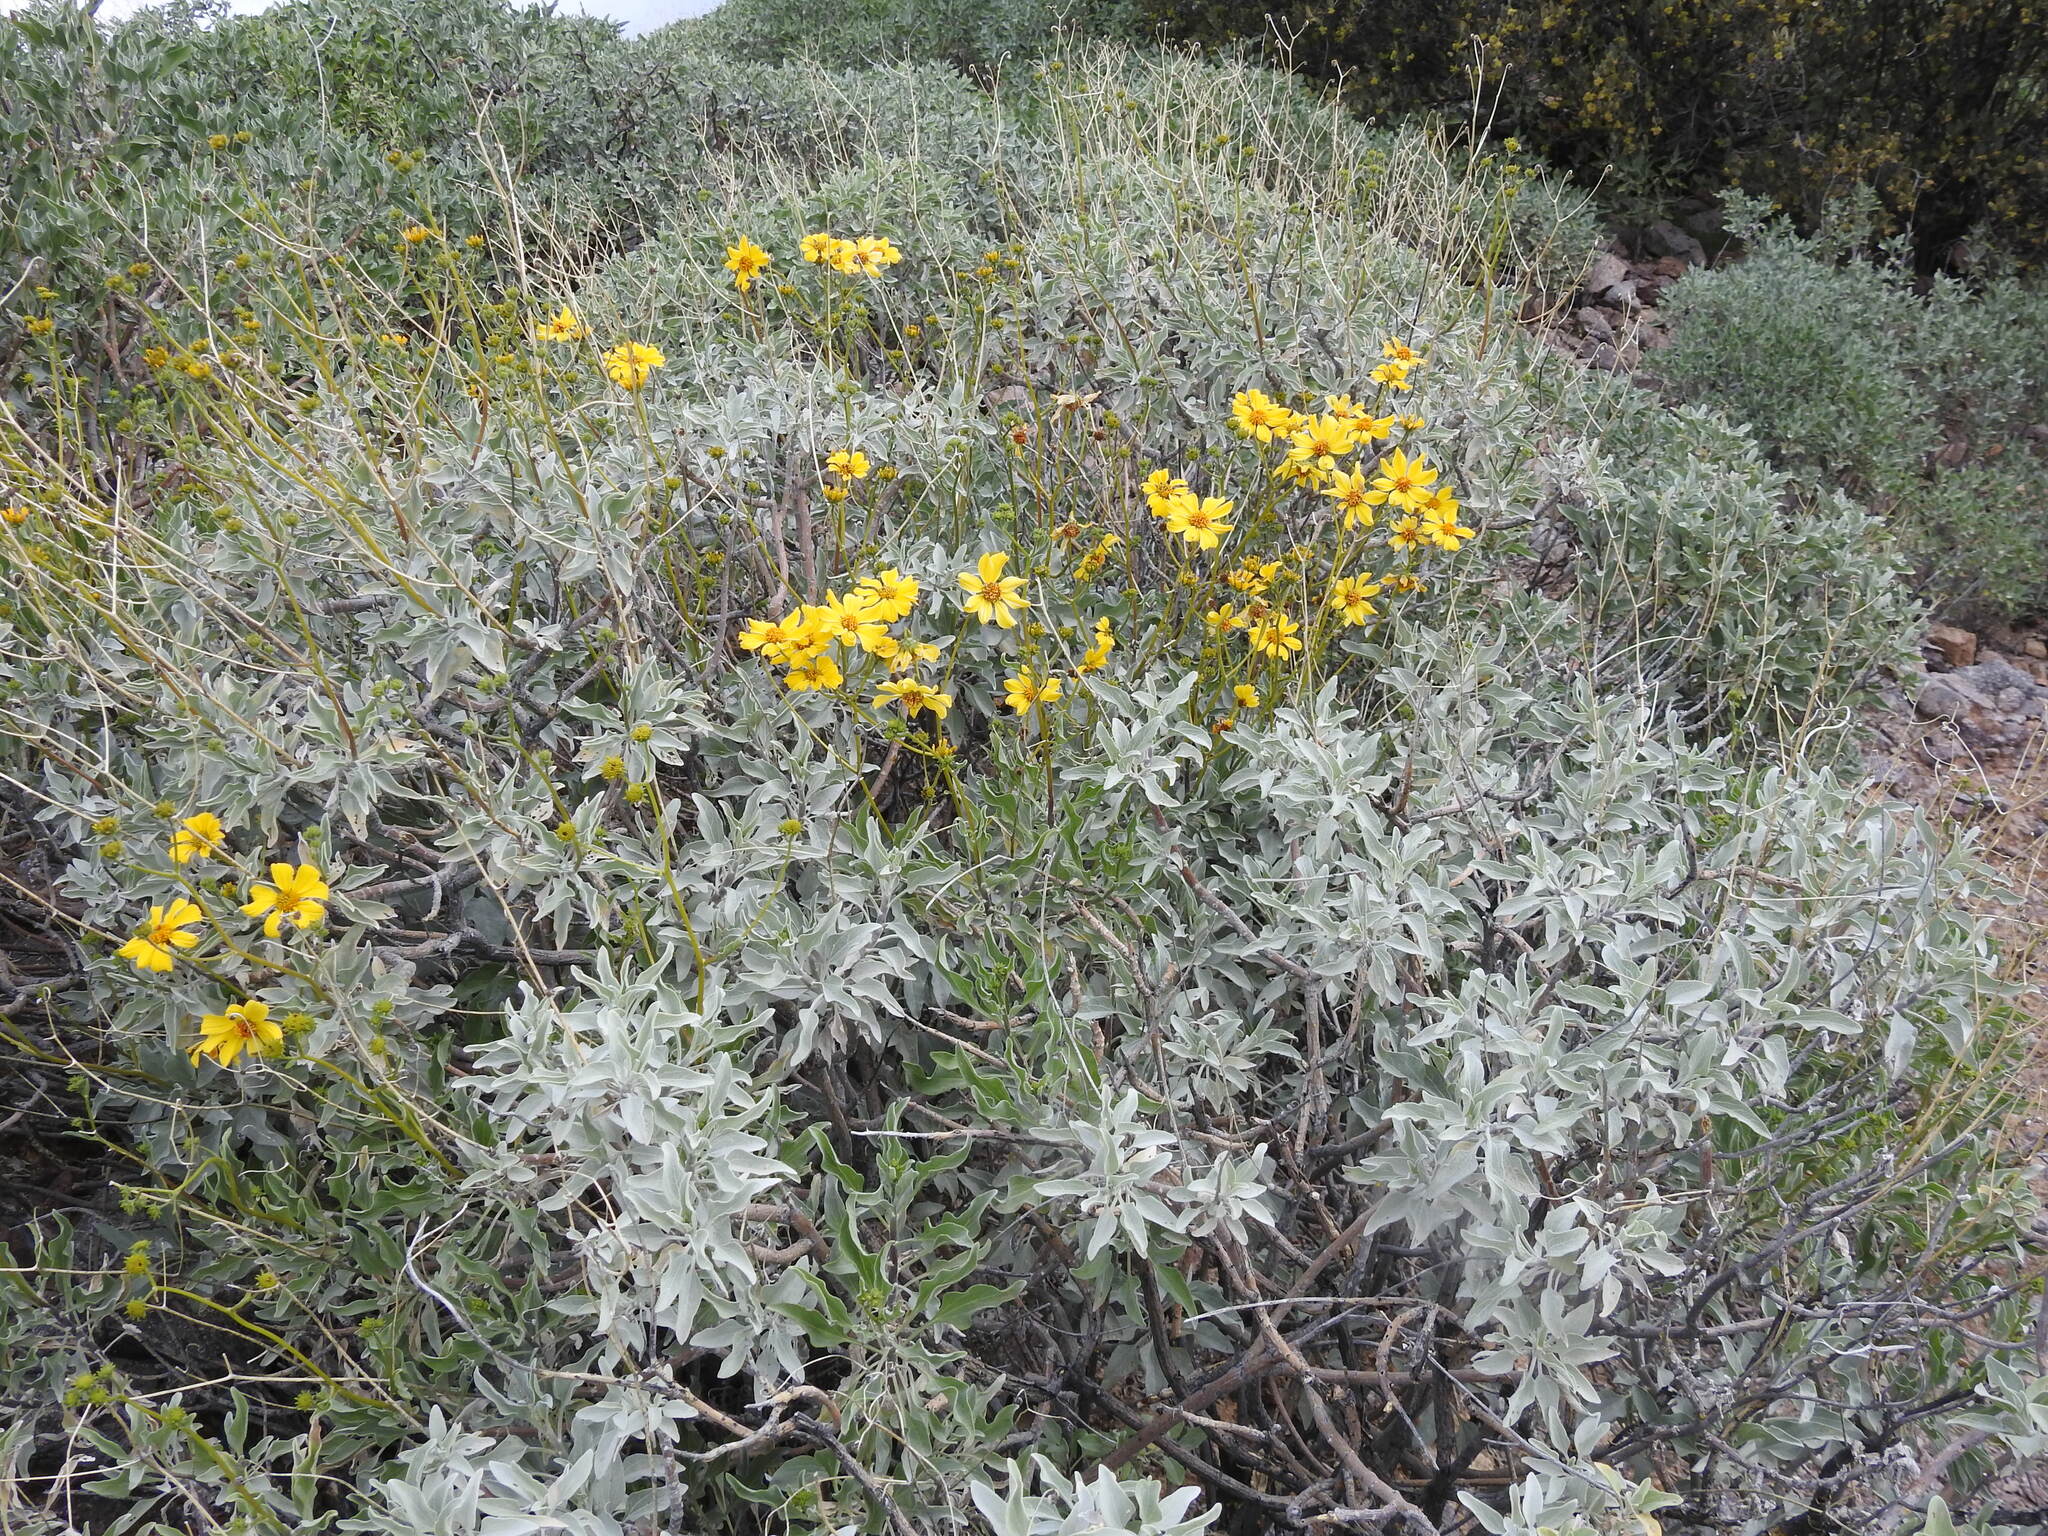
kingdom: Plantae
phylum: Tracheophyta
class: Magnoliopsida
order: Asterales
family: Asteraceae
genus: Encelia
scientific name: Encelia farinosa
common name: Brittlebush
